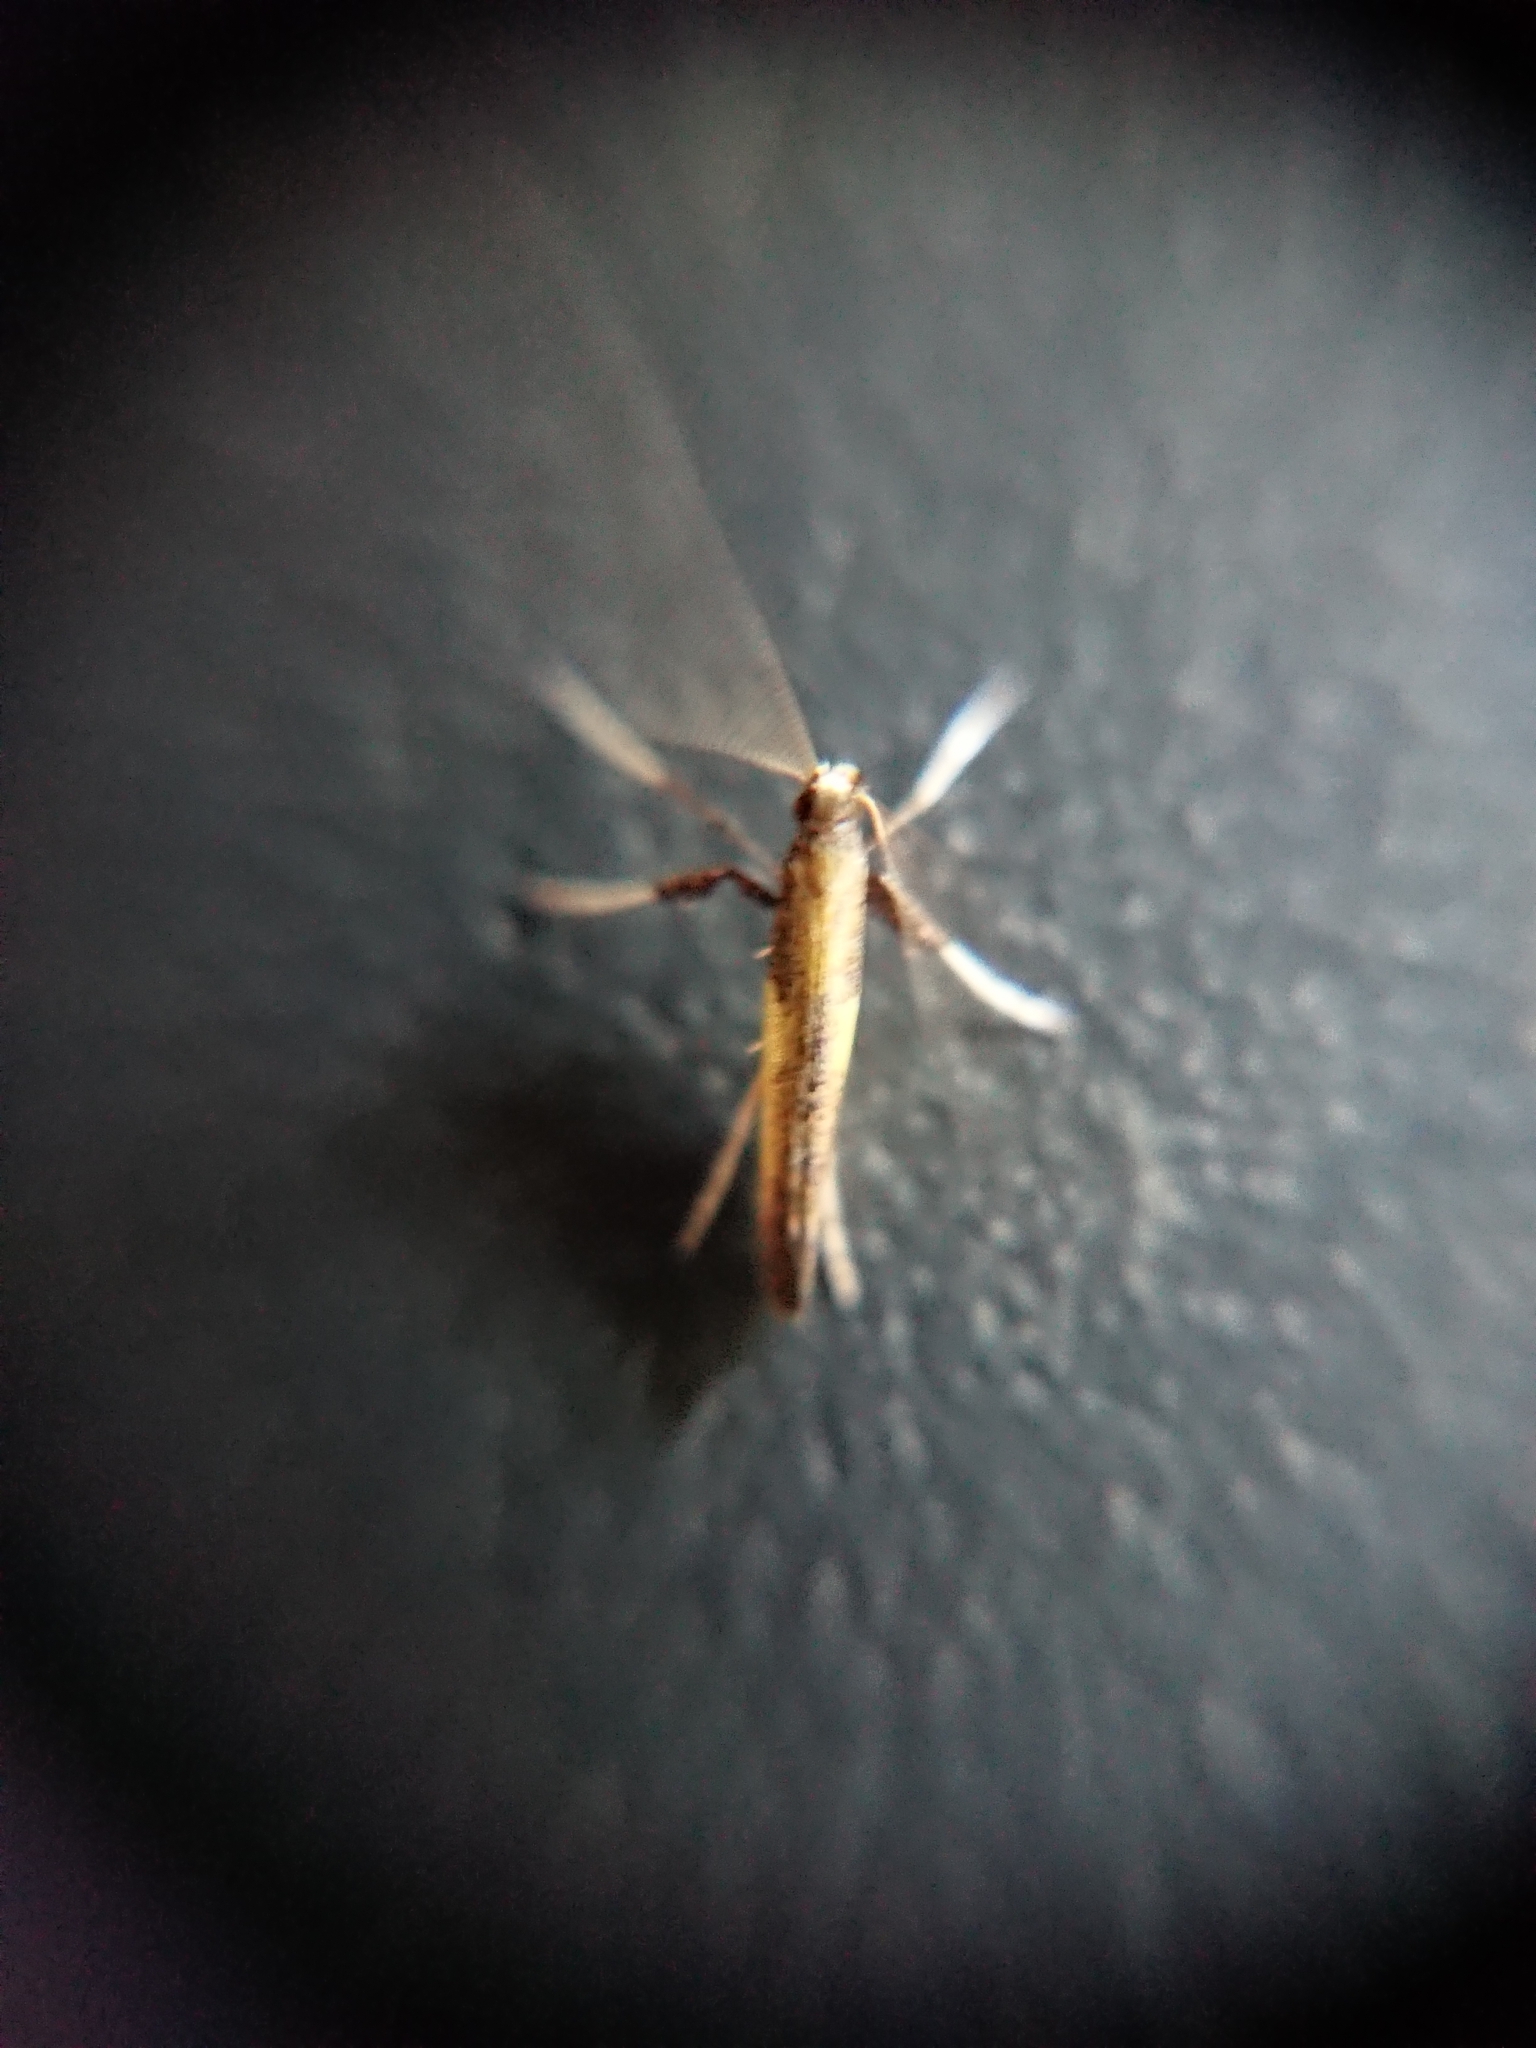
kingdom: Animalia
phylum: Arthropoda
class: Insecta
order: Lepidoptera
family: Gracillariidae
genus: Caloptilia
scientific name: Caloptilia azaleella
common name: Azalea leafminer
